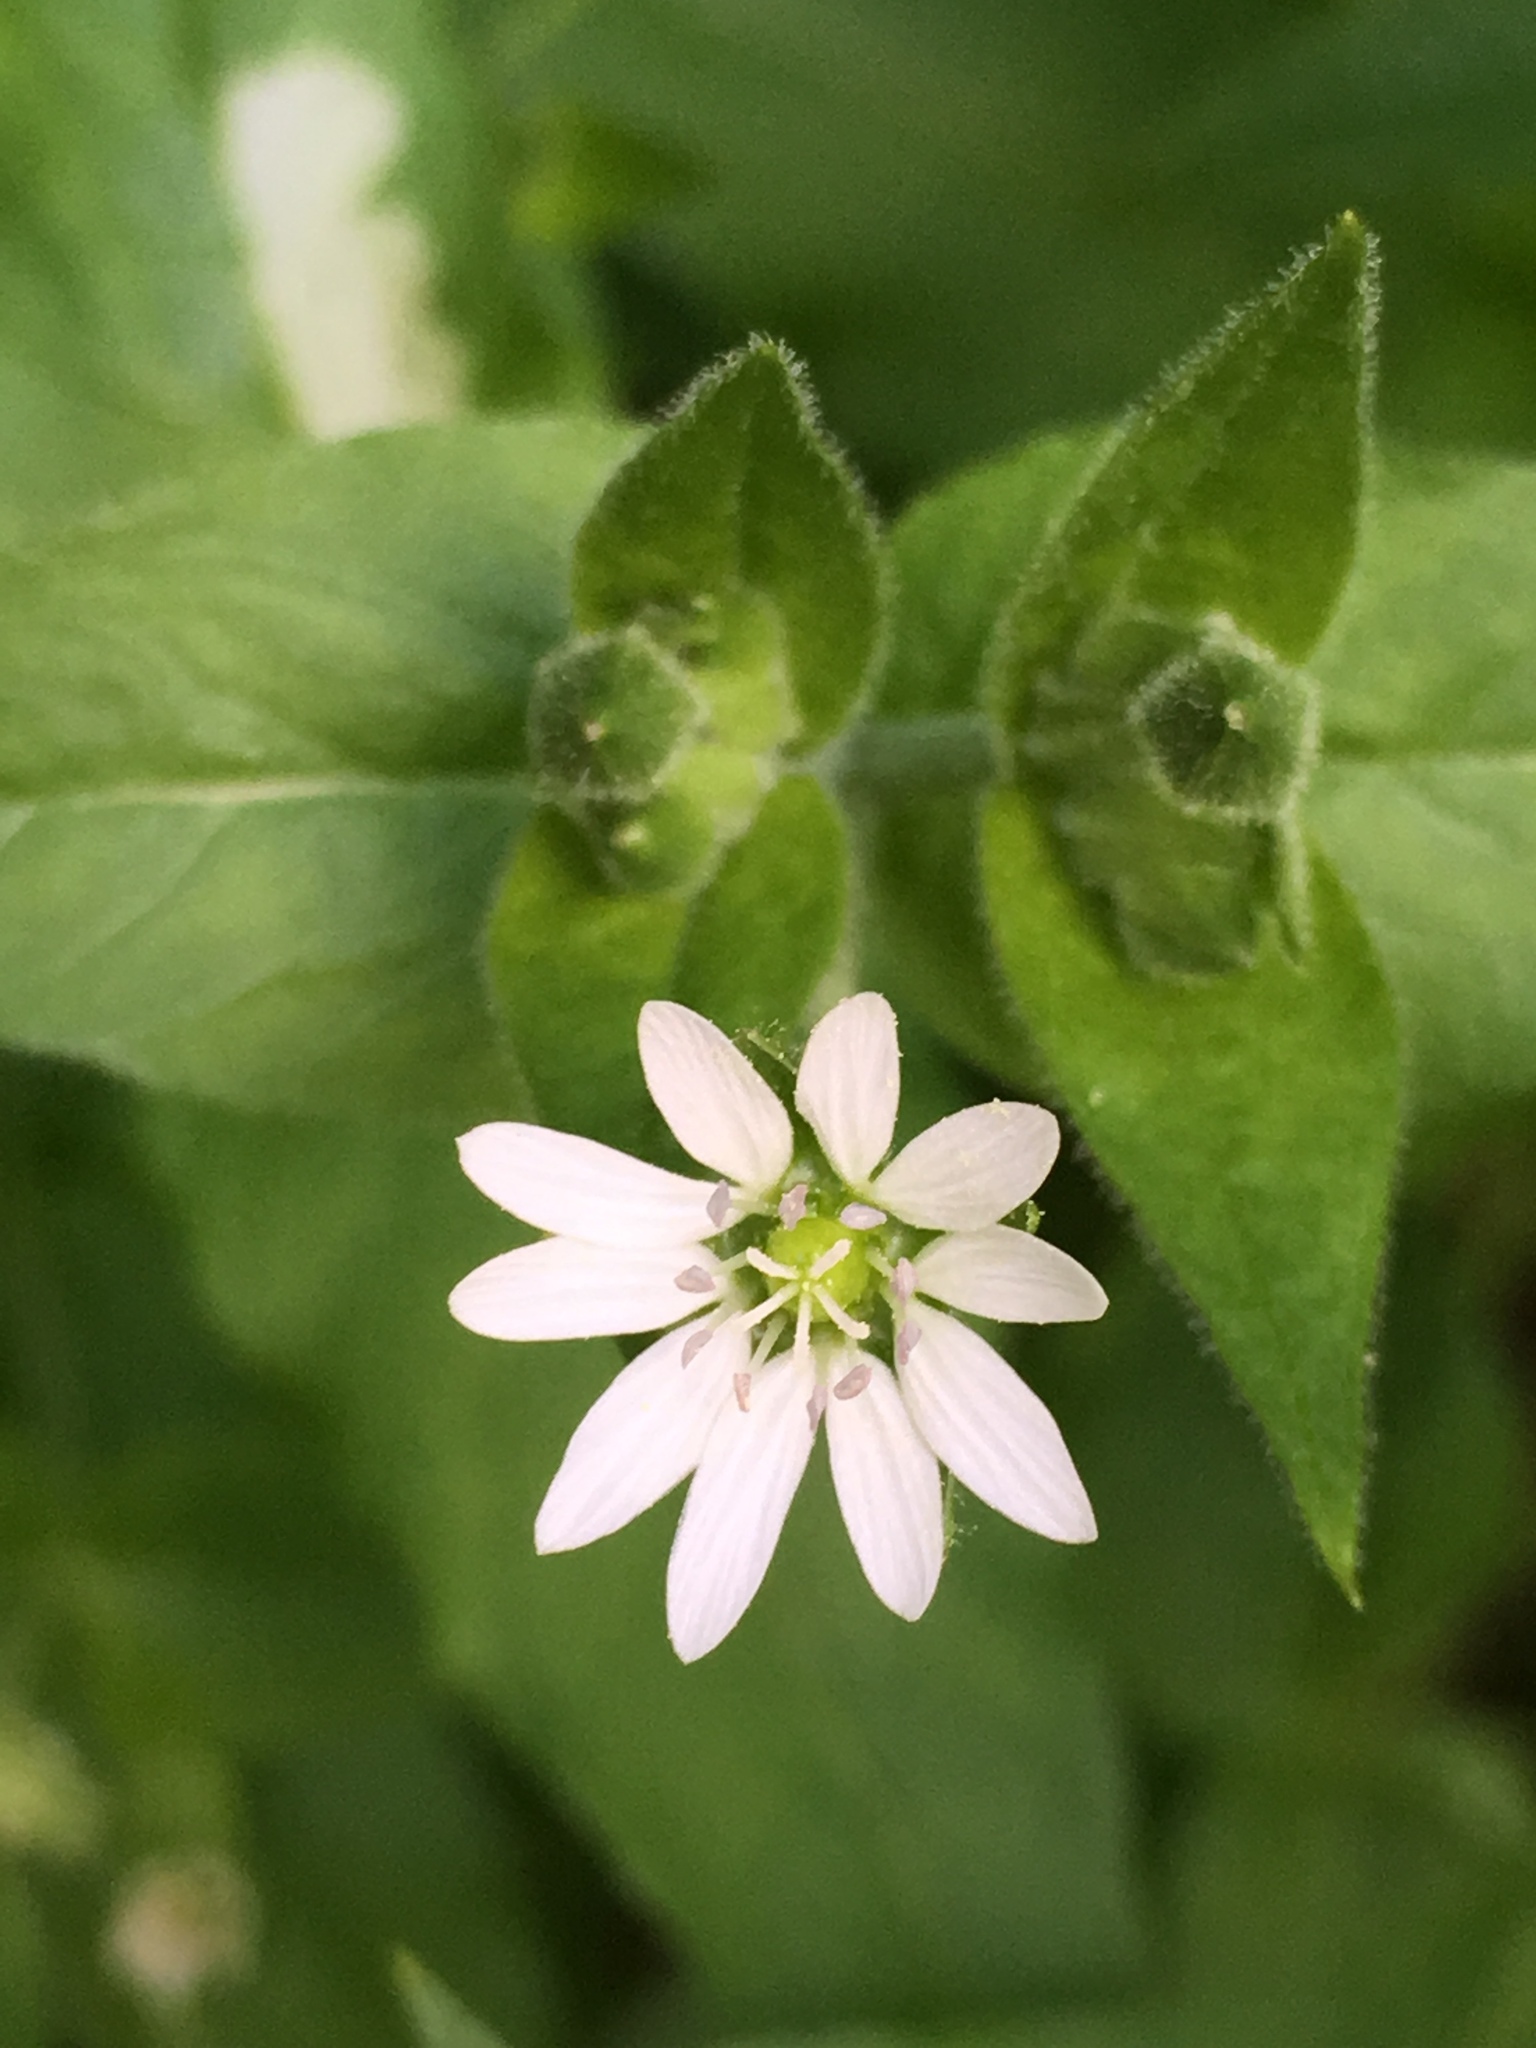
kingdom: Plantae
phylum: Tracheophyta
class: Magnoliopsida
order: Caryophyllales
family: Caryophyllaceae
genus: Stellaria
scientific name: Stellaria aquatica
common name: Water chickweed
